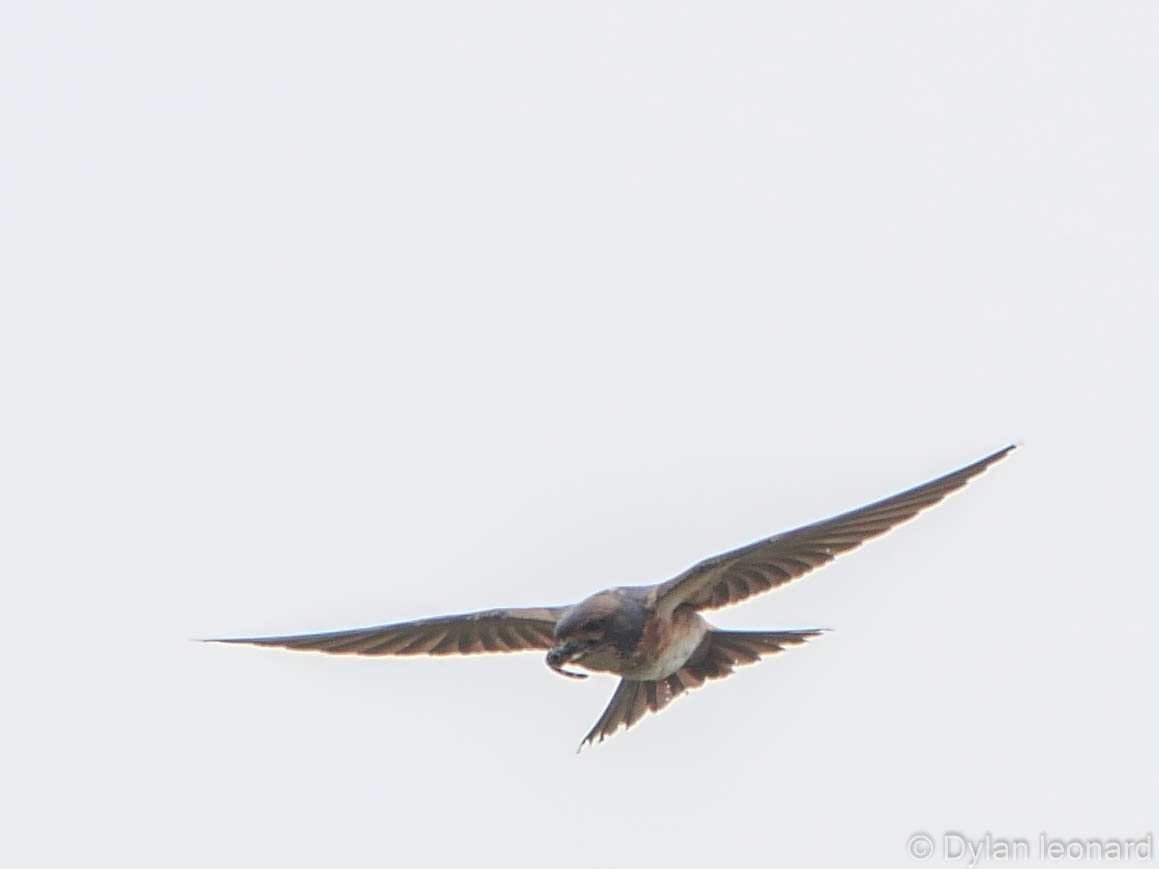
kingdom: Animalia
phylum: Chordata
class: Aves
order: Passeriformes
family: Hirundinidae
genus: Petrochelidon
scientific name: Petrochelidon spilodera
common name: South african swallow
